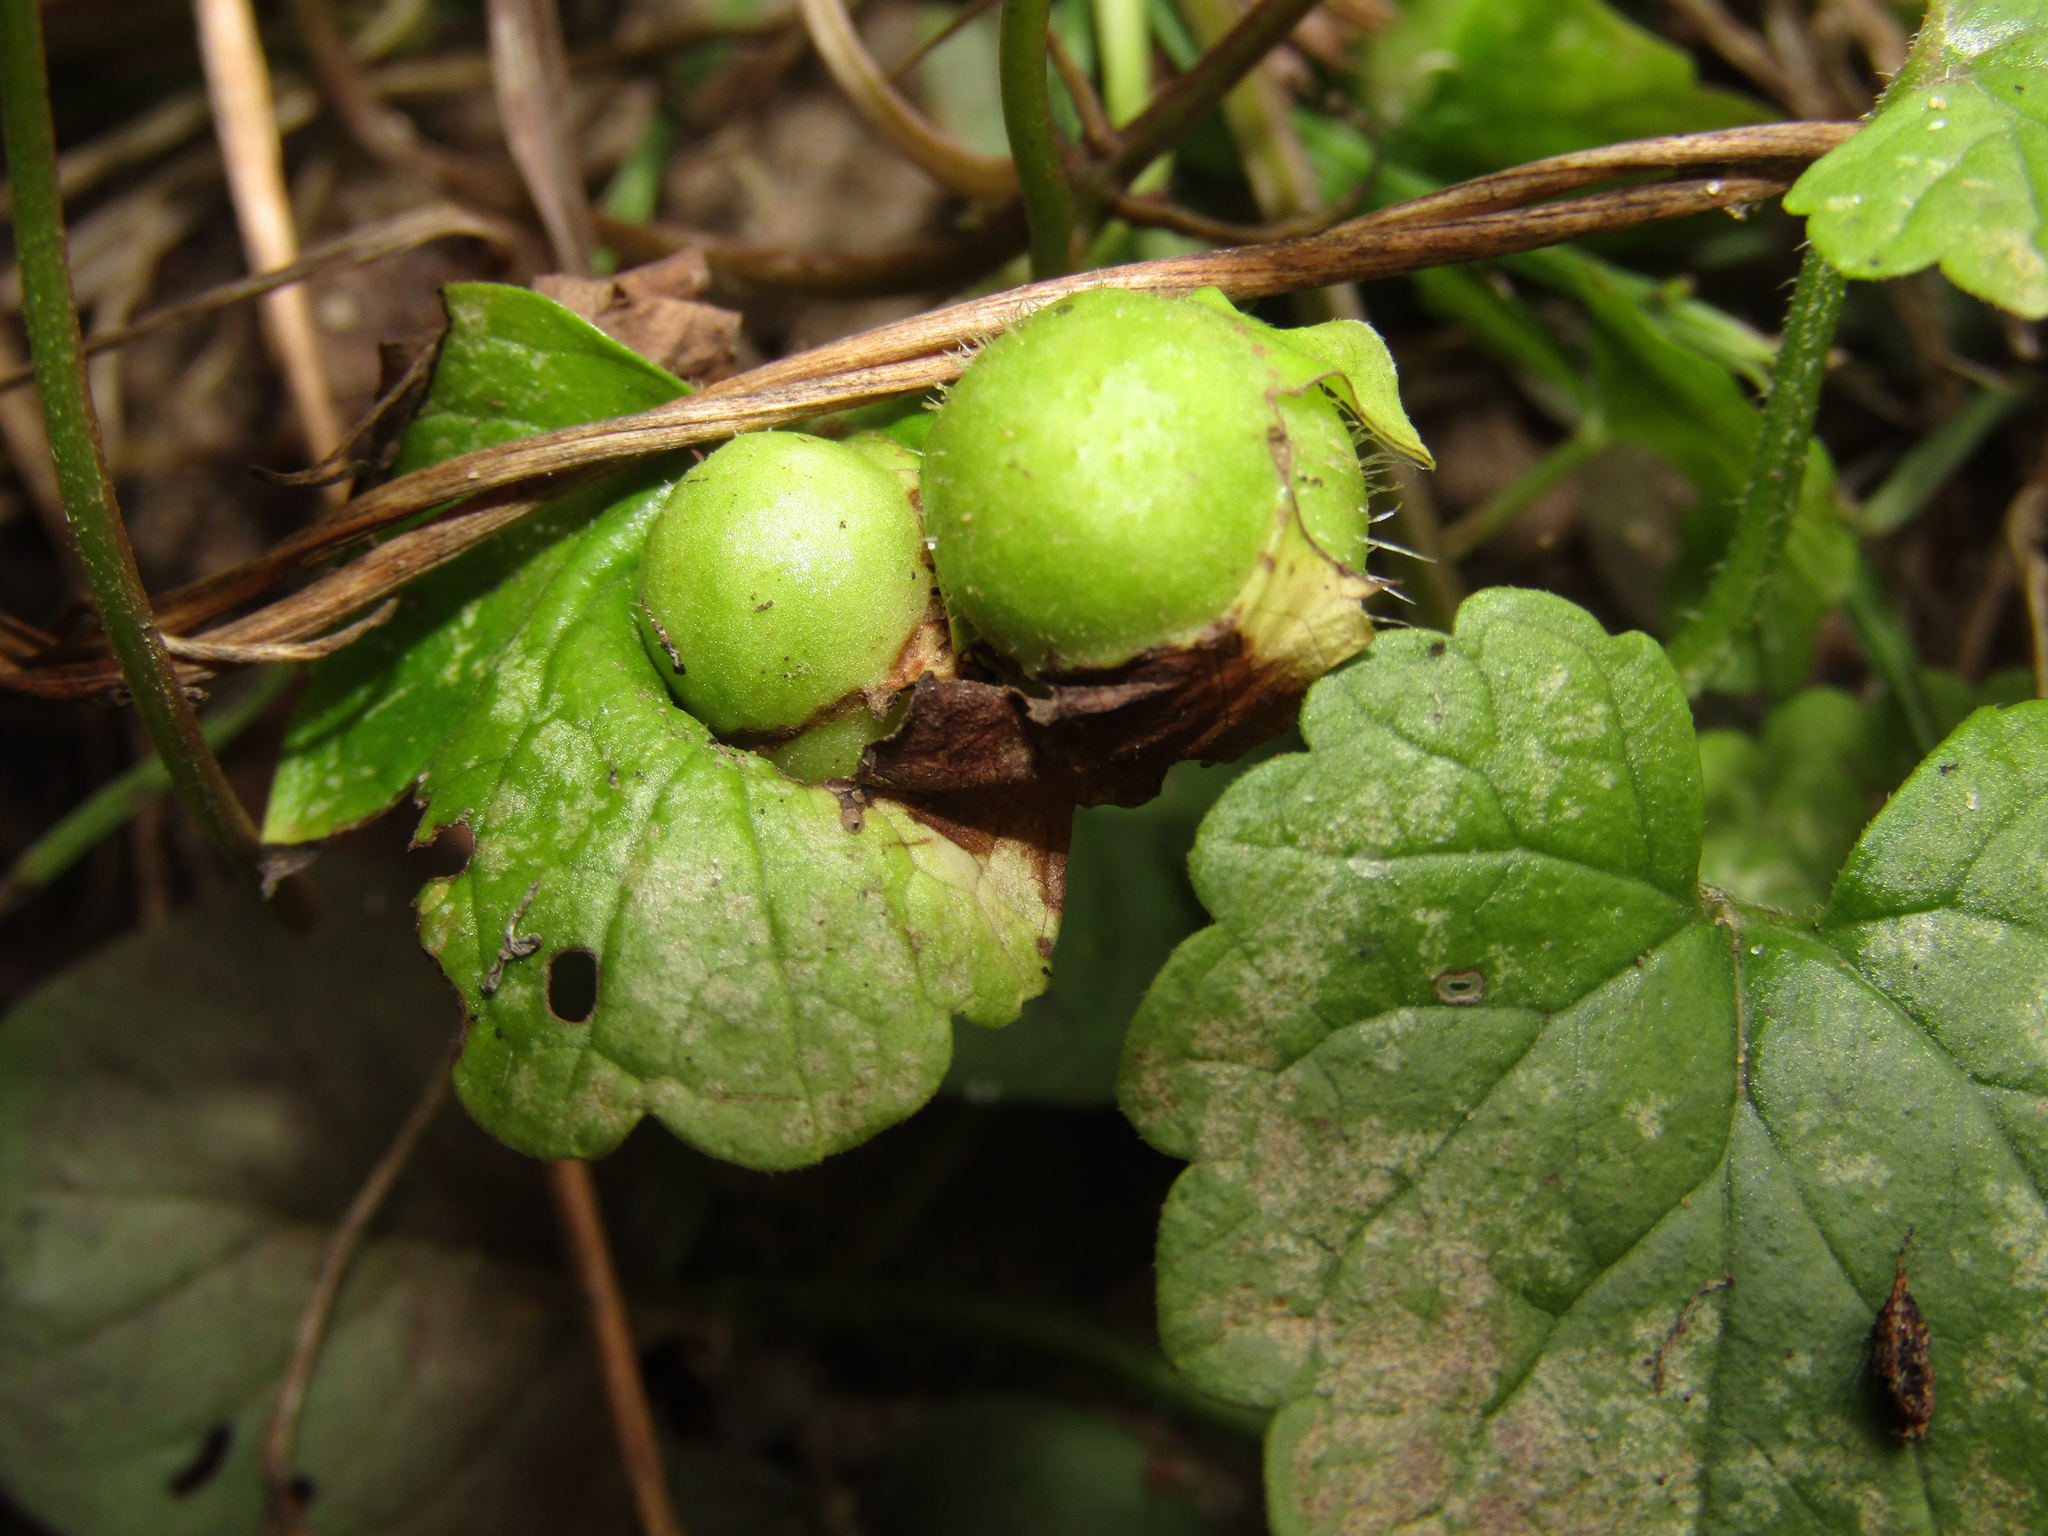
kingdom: Animalia
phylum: Arthropoda
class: Insecta
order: Hymenoptera
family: Cynipidae
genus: Liposthenes
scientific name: Liposthenes glechomae
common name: Gall wasp
